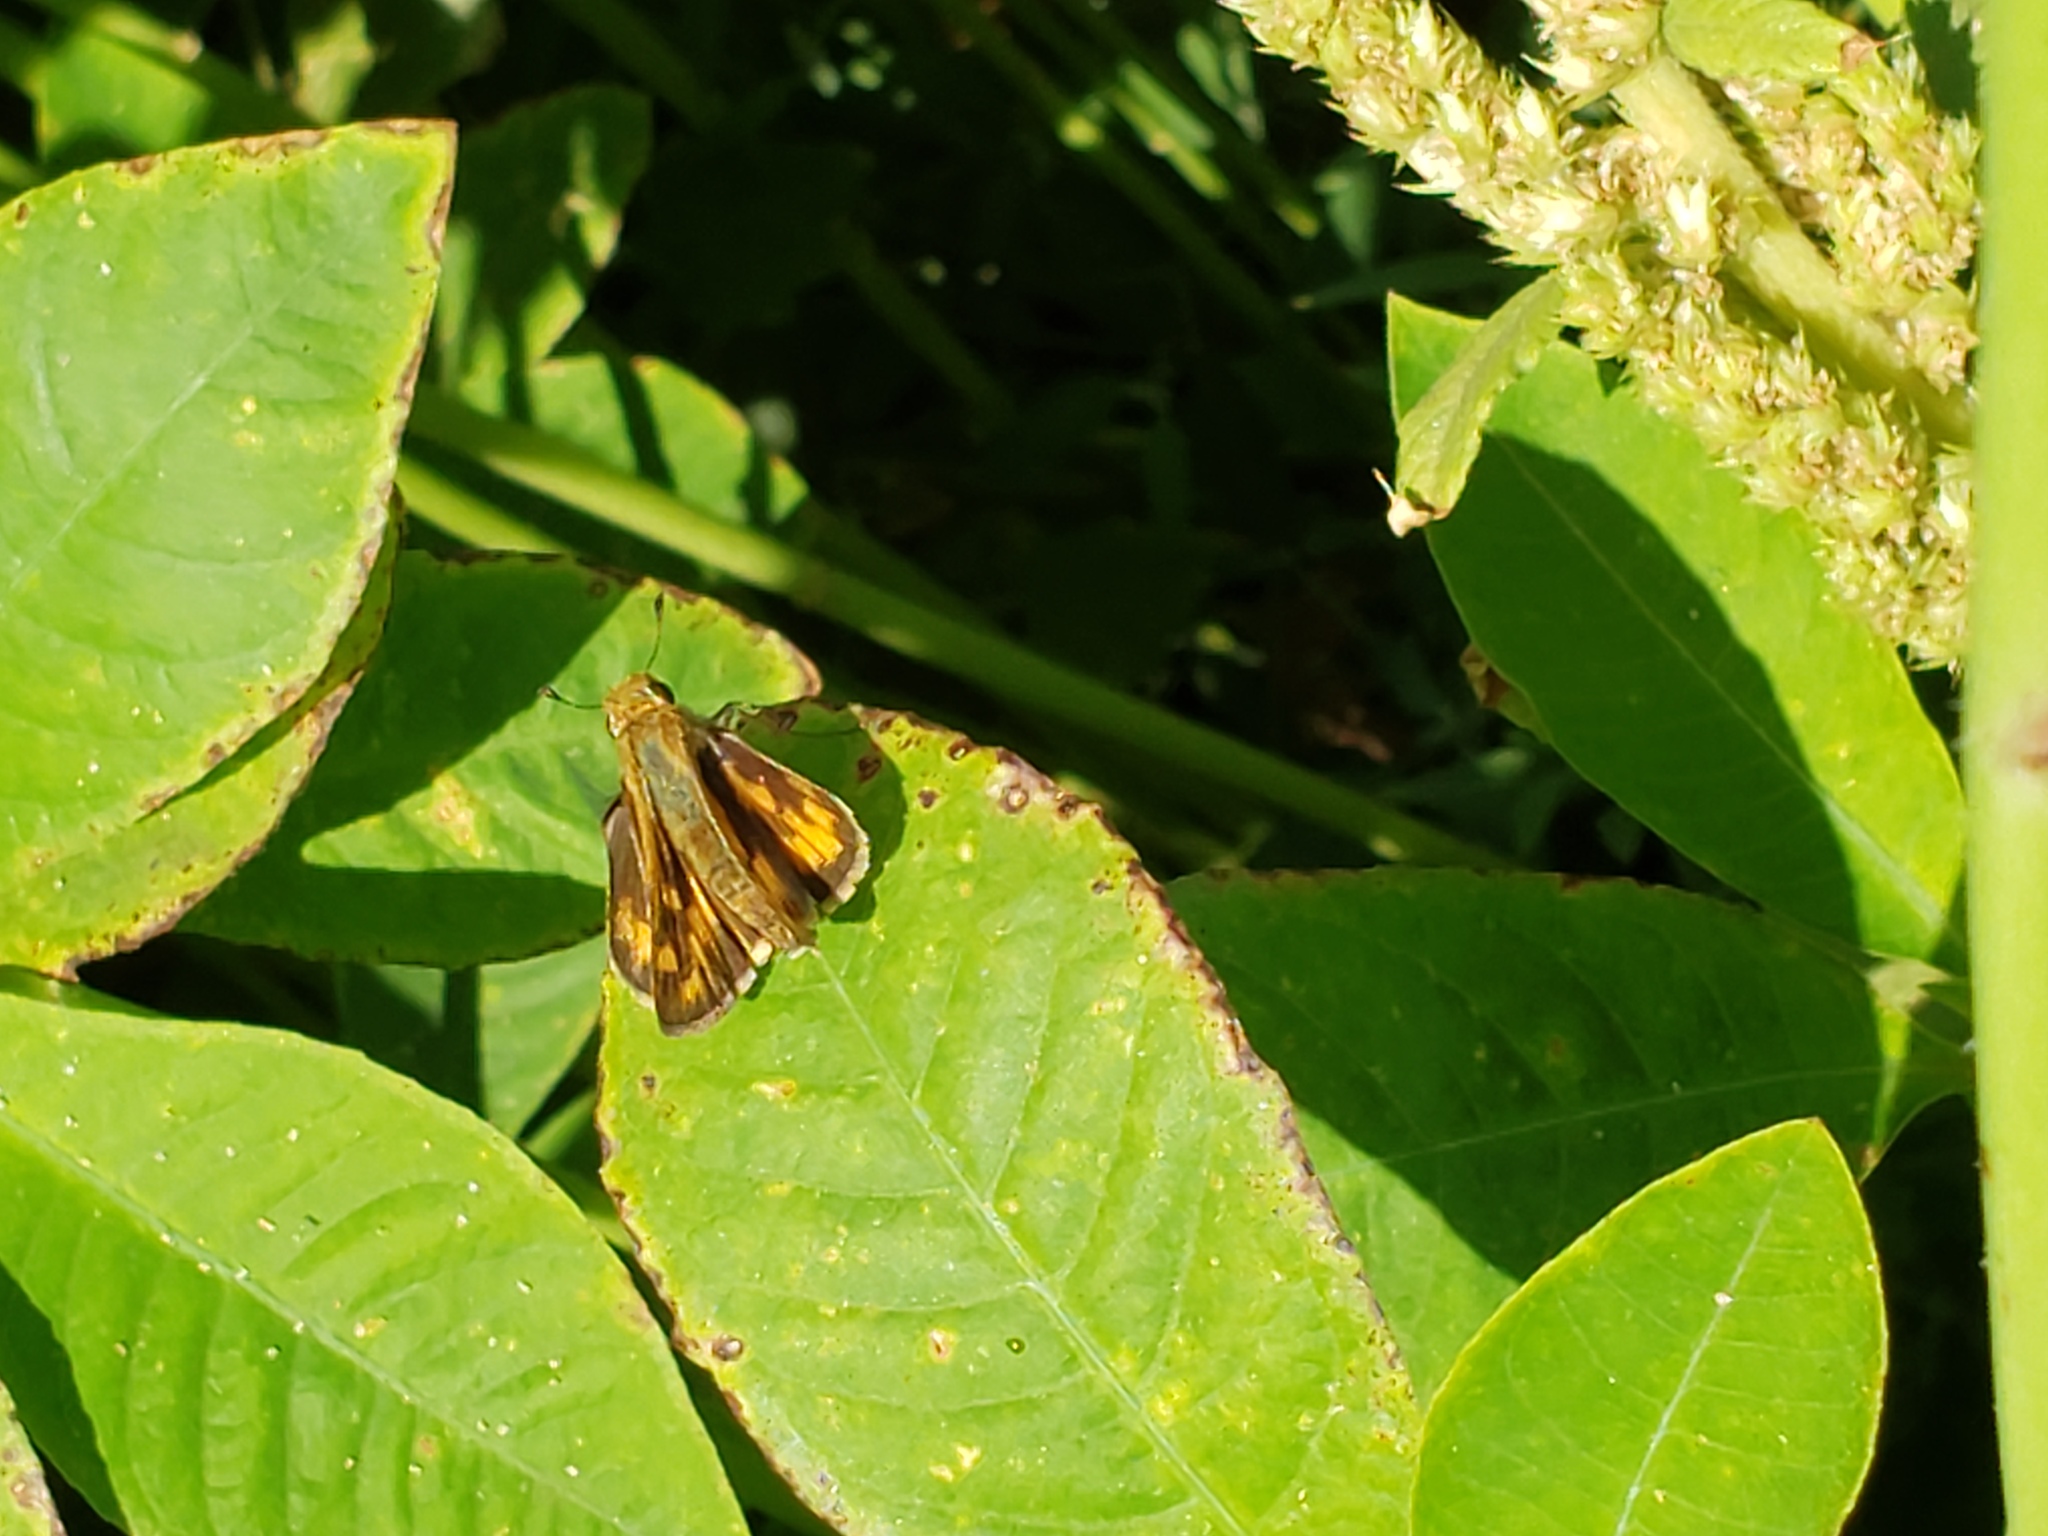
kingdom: Animalia
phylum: Arthropoda
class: Insecta
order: Lepidoptera
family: Hesperiidae
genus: Hylephila
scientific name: Hylephila phyleus
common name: Fiery skipper
